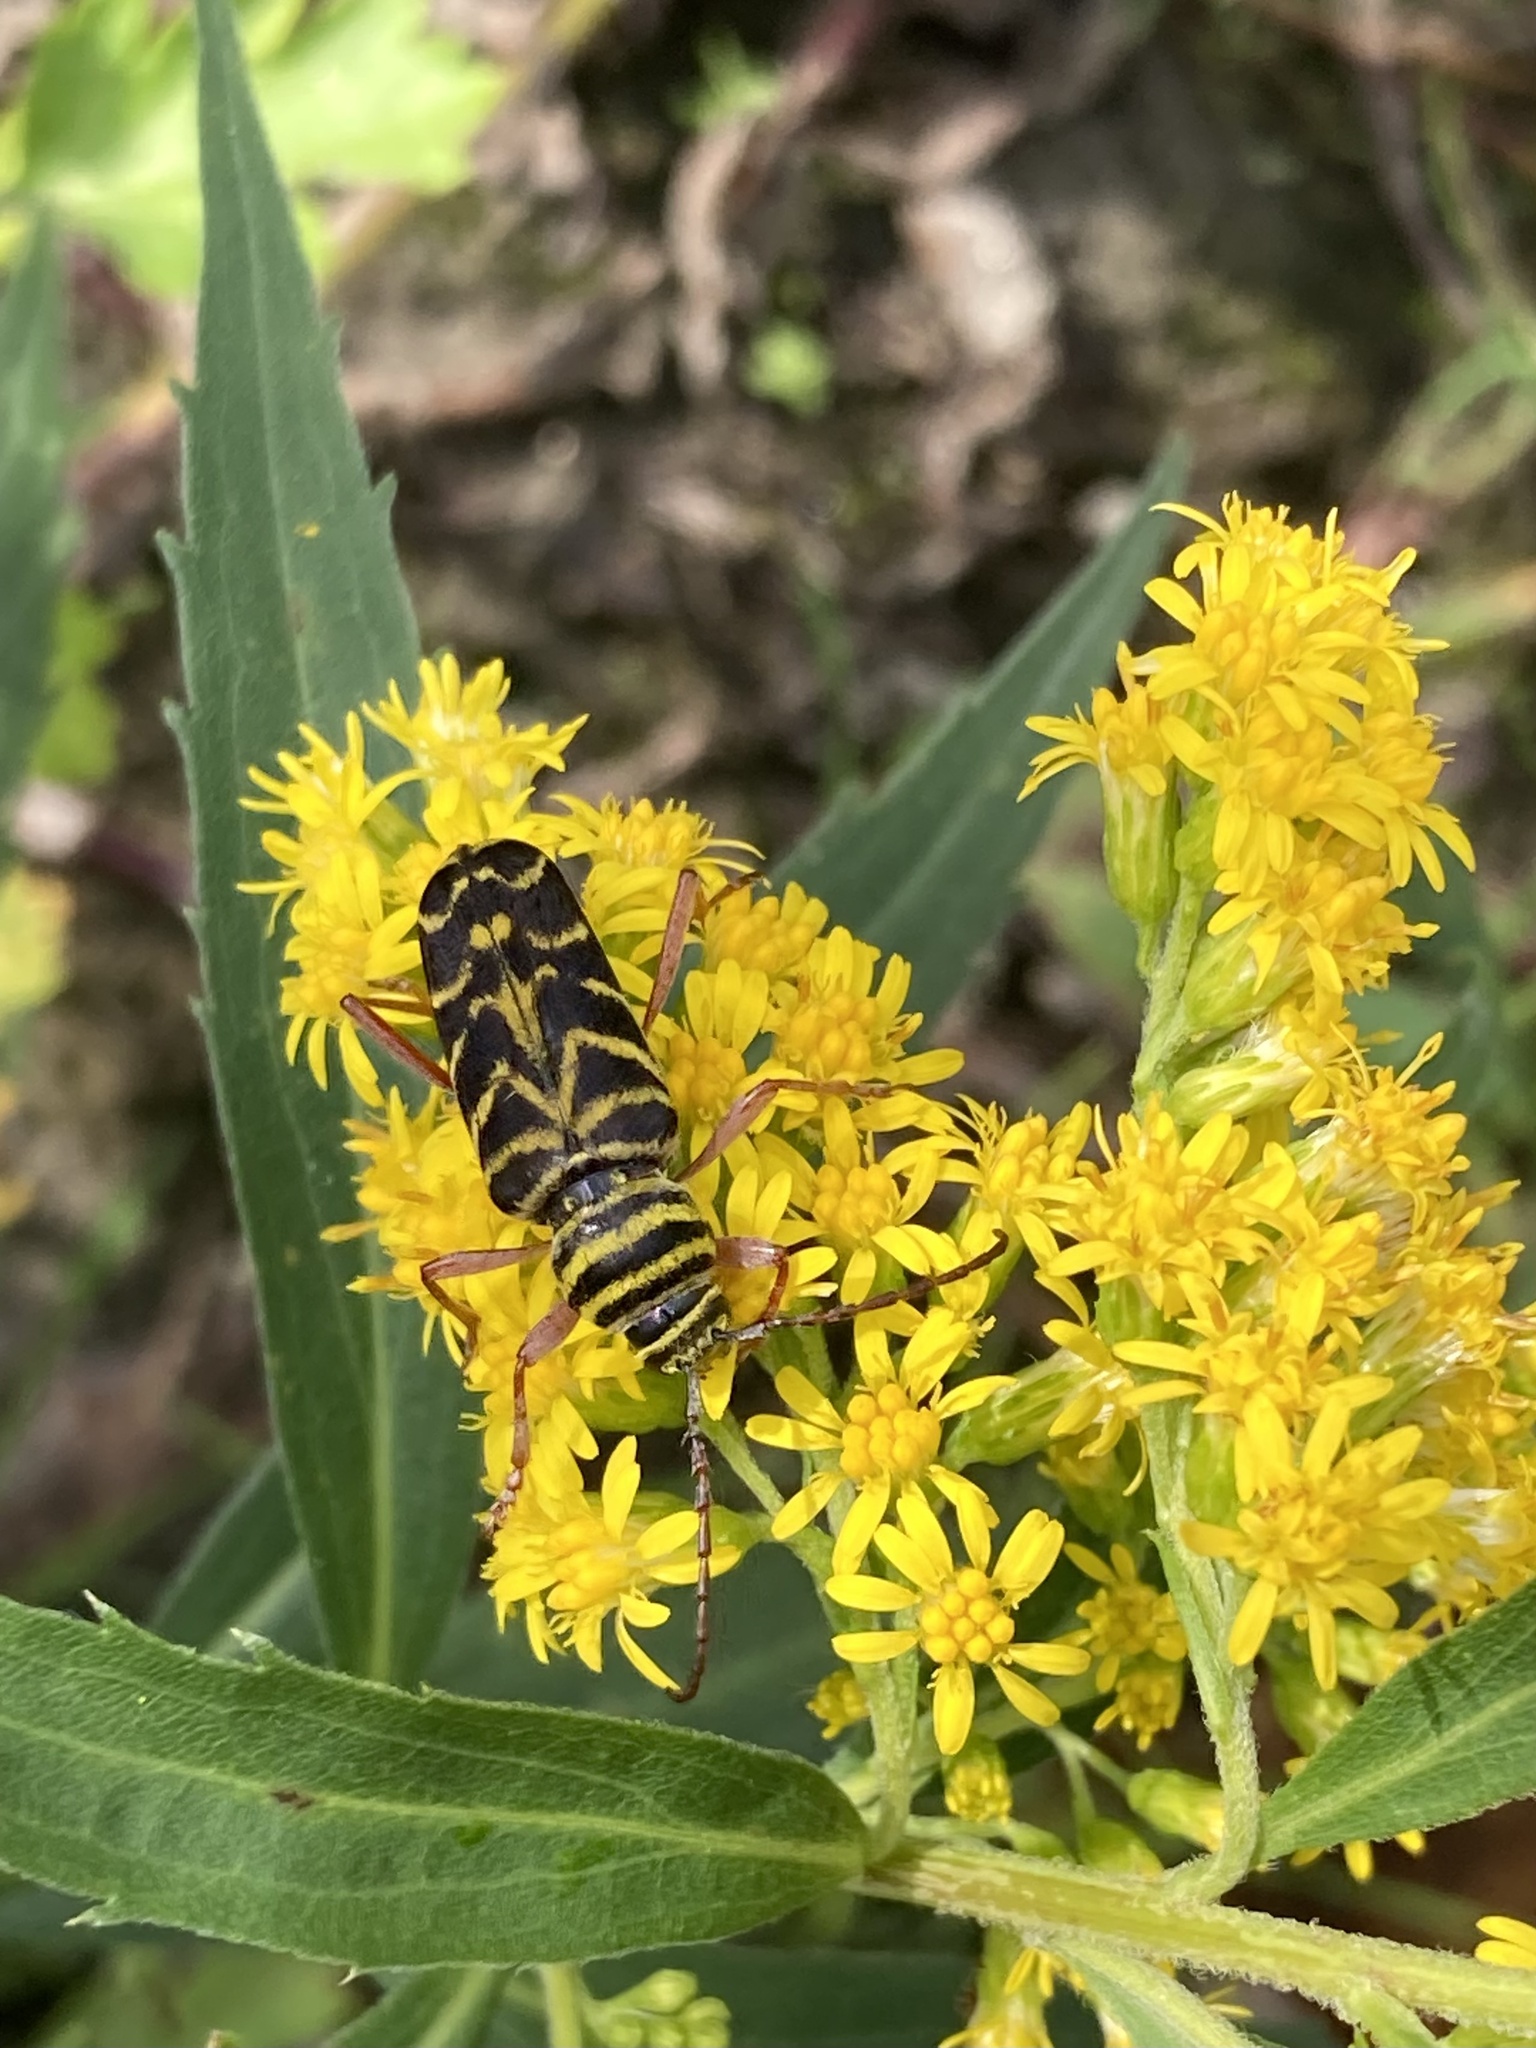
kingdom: Animalia
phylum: Arthropoda
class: Insecta
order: Coleoptera
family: Cerambycidae
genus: Megacyllene
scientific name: Megacyllene robiniae
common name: Locust borer
